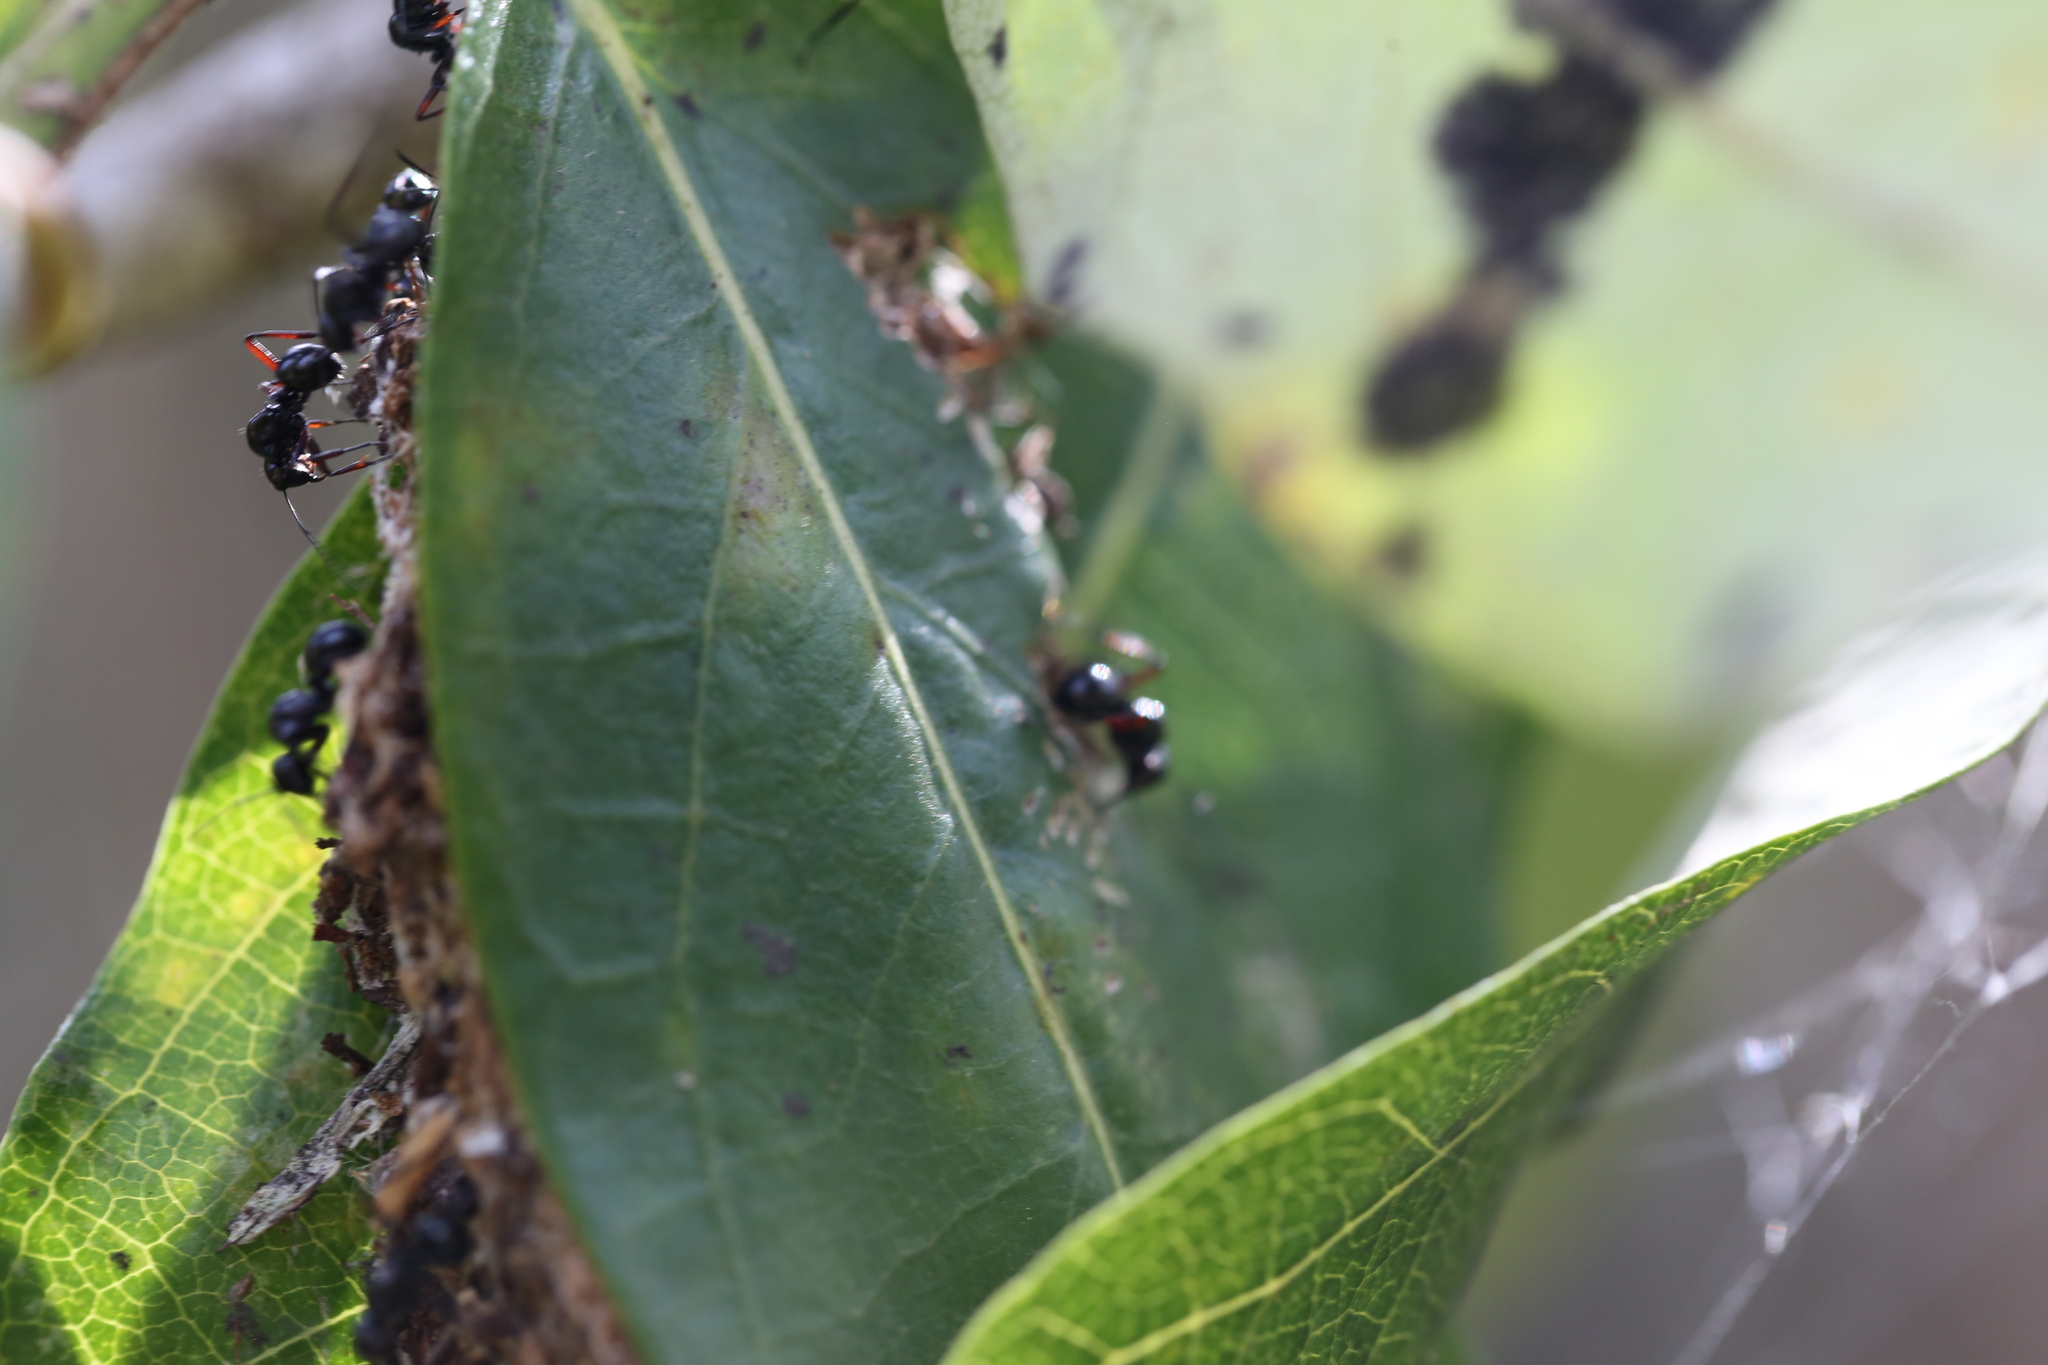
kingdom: Animalia
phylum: Arthropoda
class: Insecta
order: Hymenoptera
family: Formicidae
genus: Polyrhachis
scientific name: Polyrhachis australis
